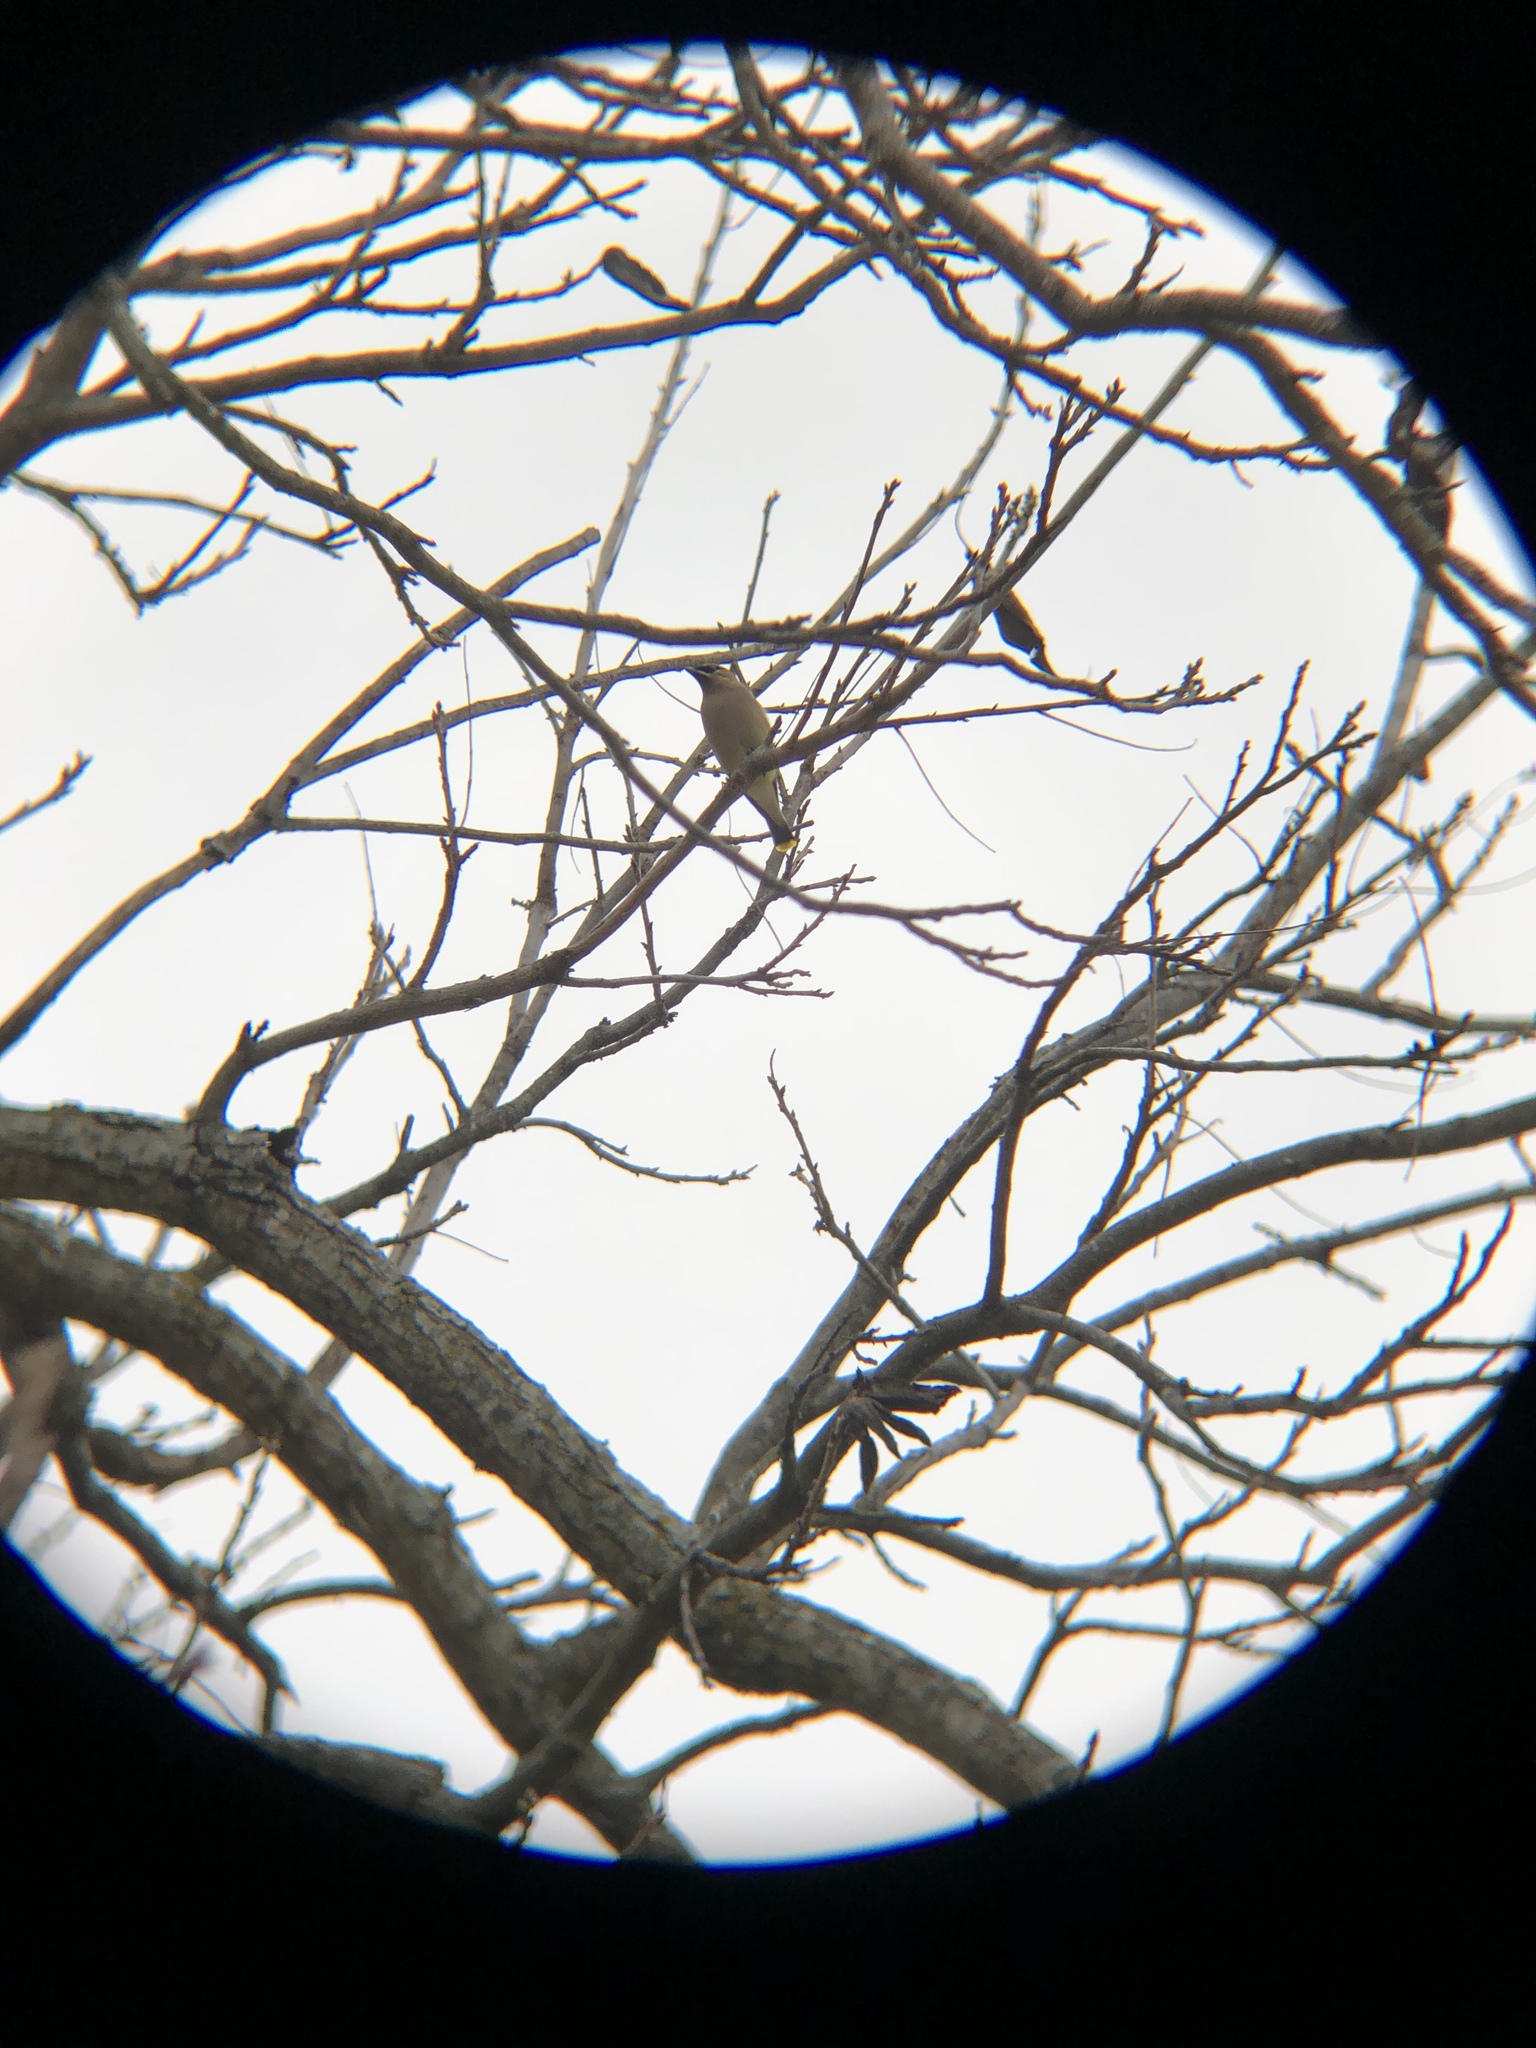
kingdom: Animalia
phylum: Chordata
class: Aves
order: Passeriformes
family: Bombycillidae
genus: Bombycilla
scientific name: Bombycilla cedrorum
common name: Cedar waxwing
